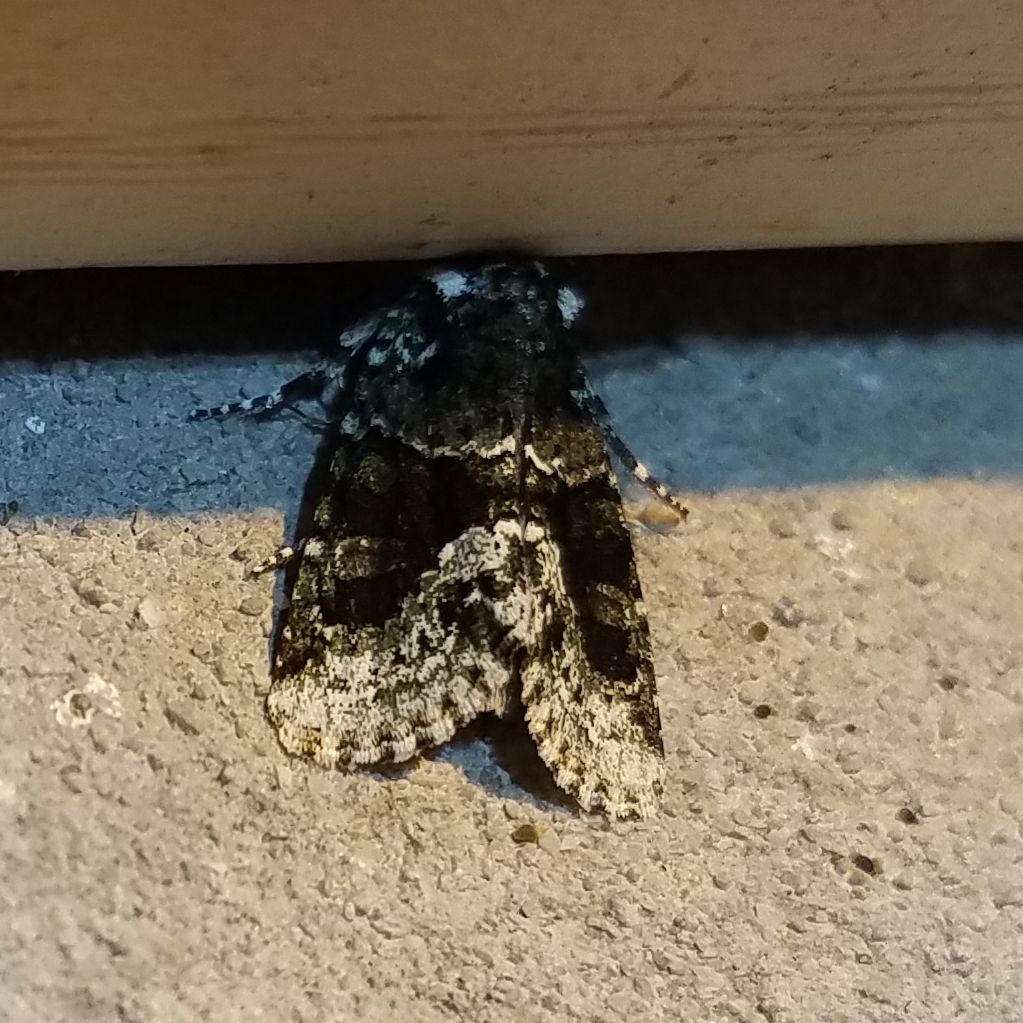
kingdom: Animalia
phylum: Arthropoda
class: Insecta
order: Lepidoptera
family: Noctuidae
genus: Lacinipolia
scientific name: Lacinipolia explicata
